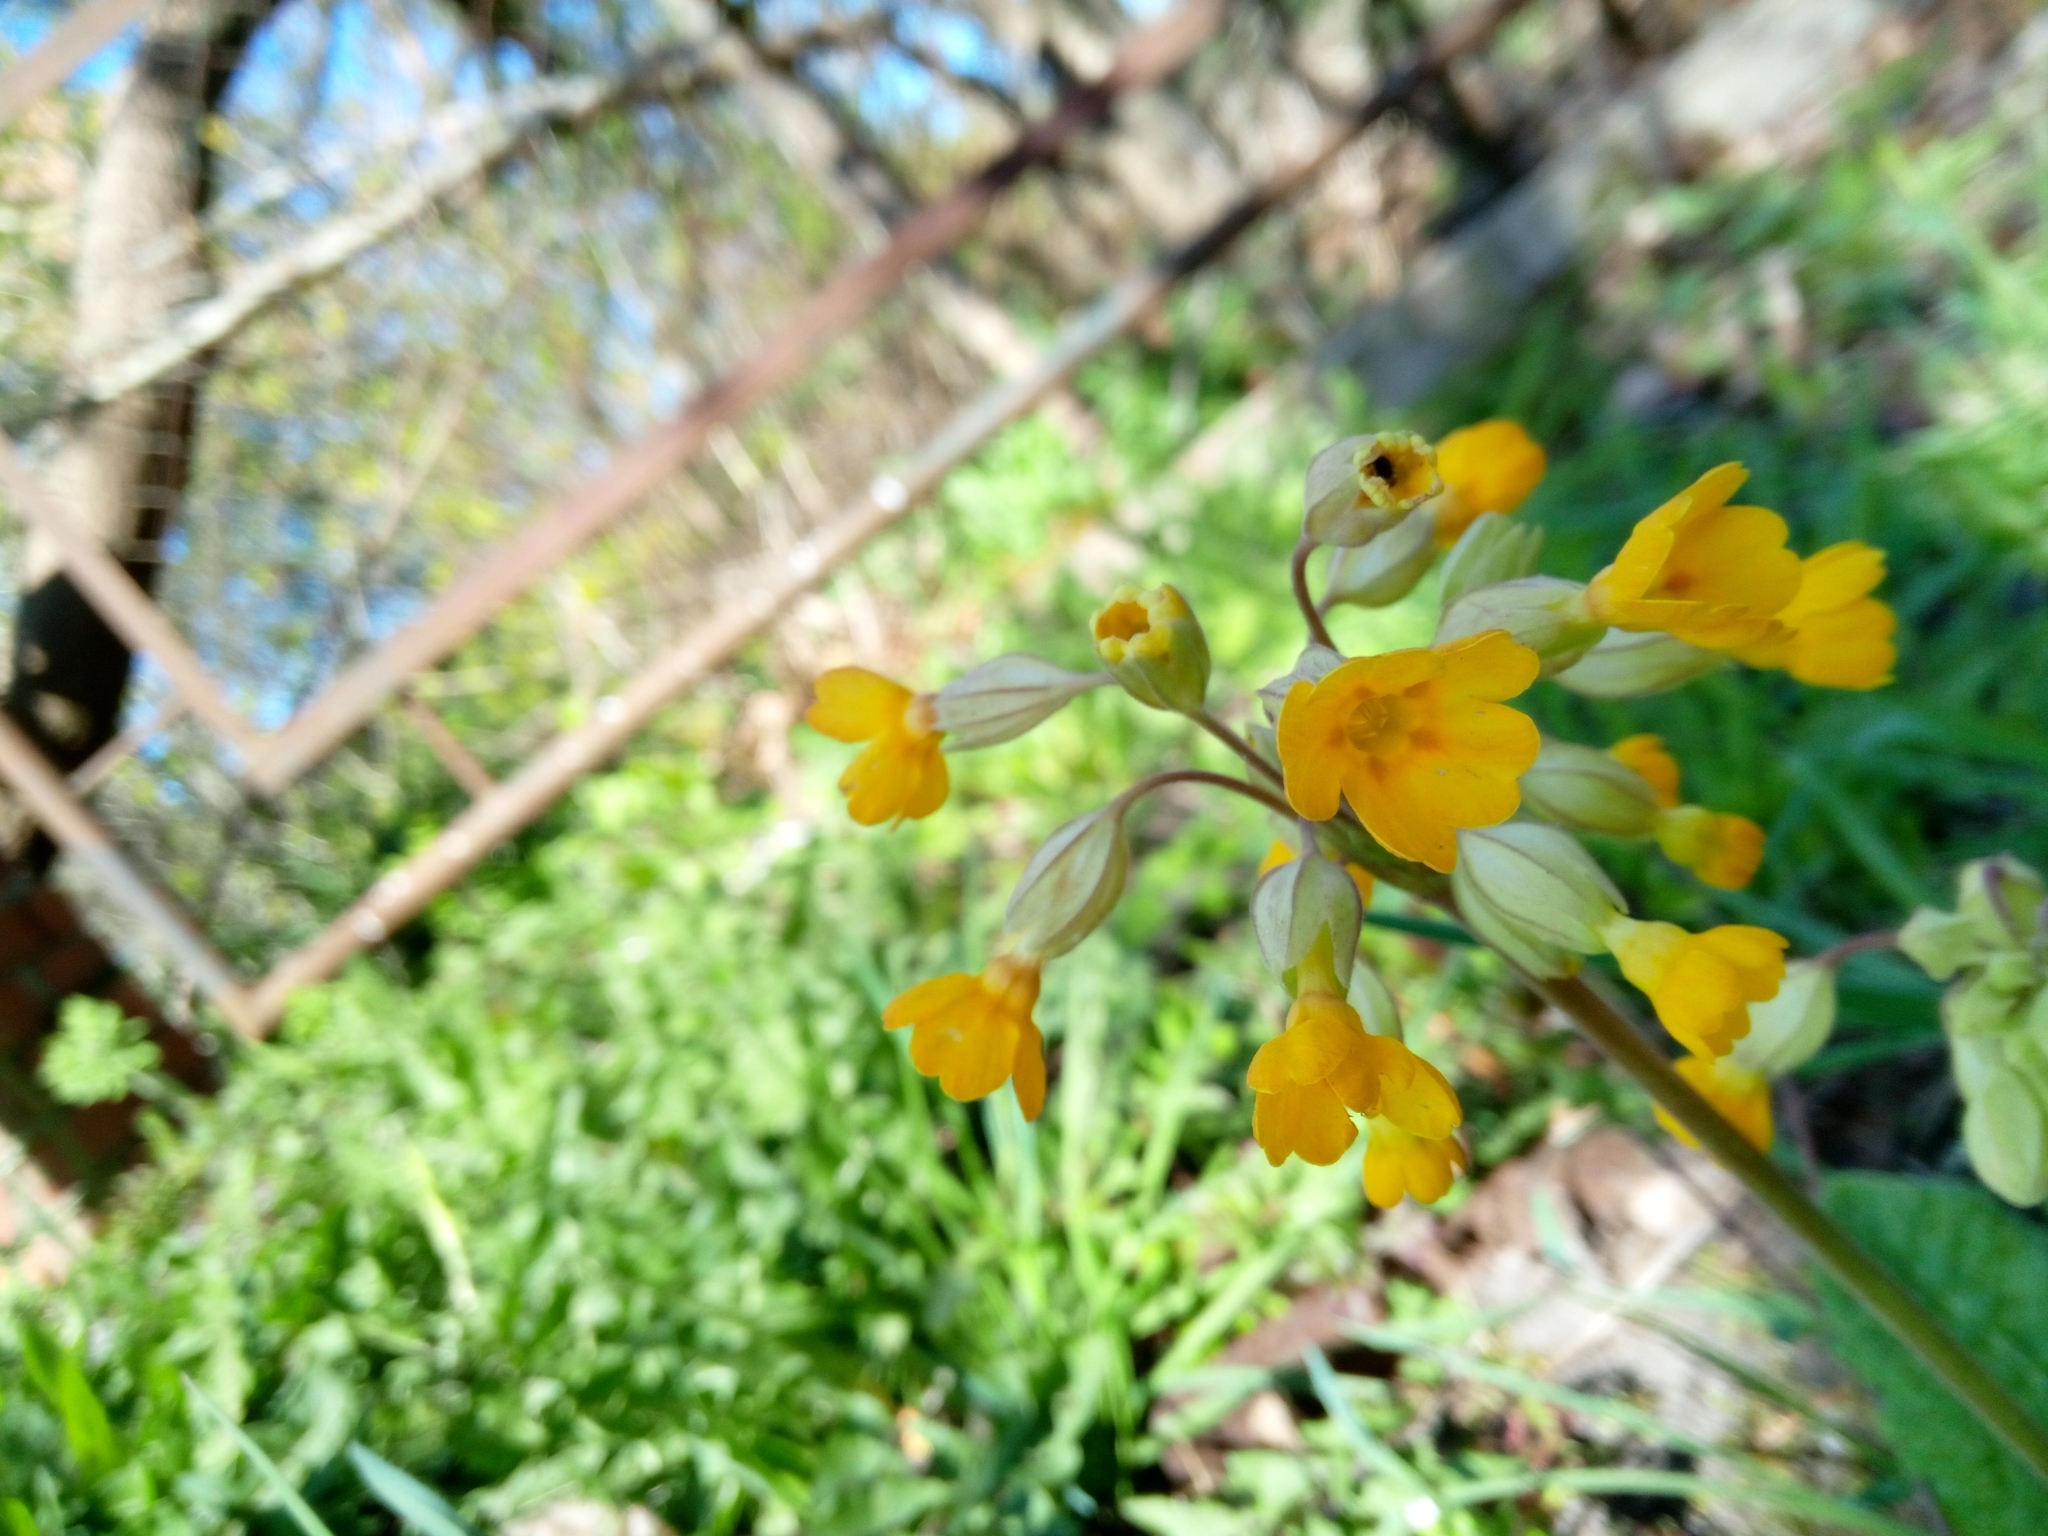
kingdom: Plantae
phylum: Tracheophyta
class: Magnoliopsida
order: Ericales
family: Primulaceae
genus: Primula
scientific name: Primula veris
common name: Cowslip
